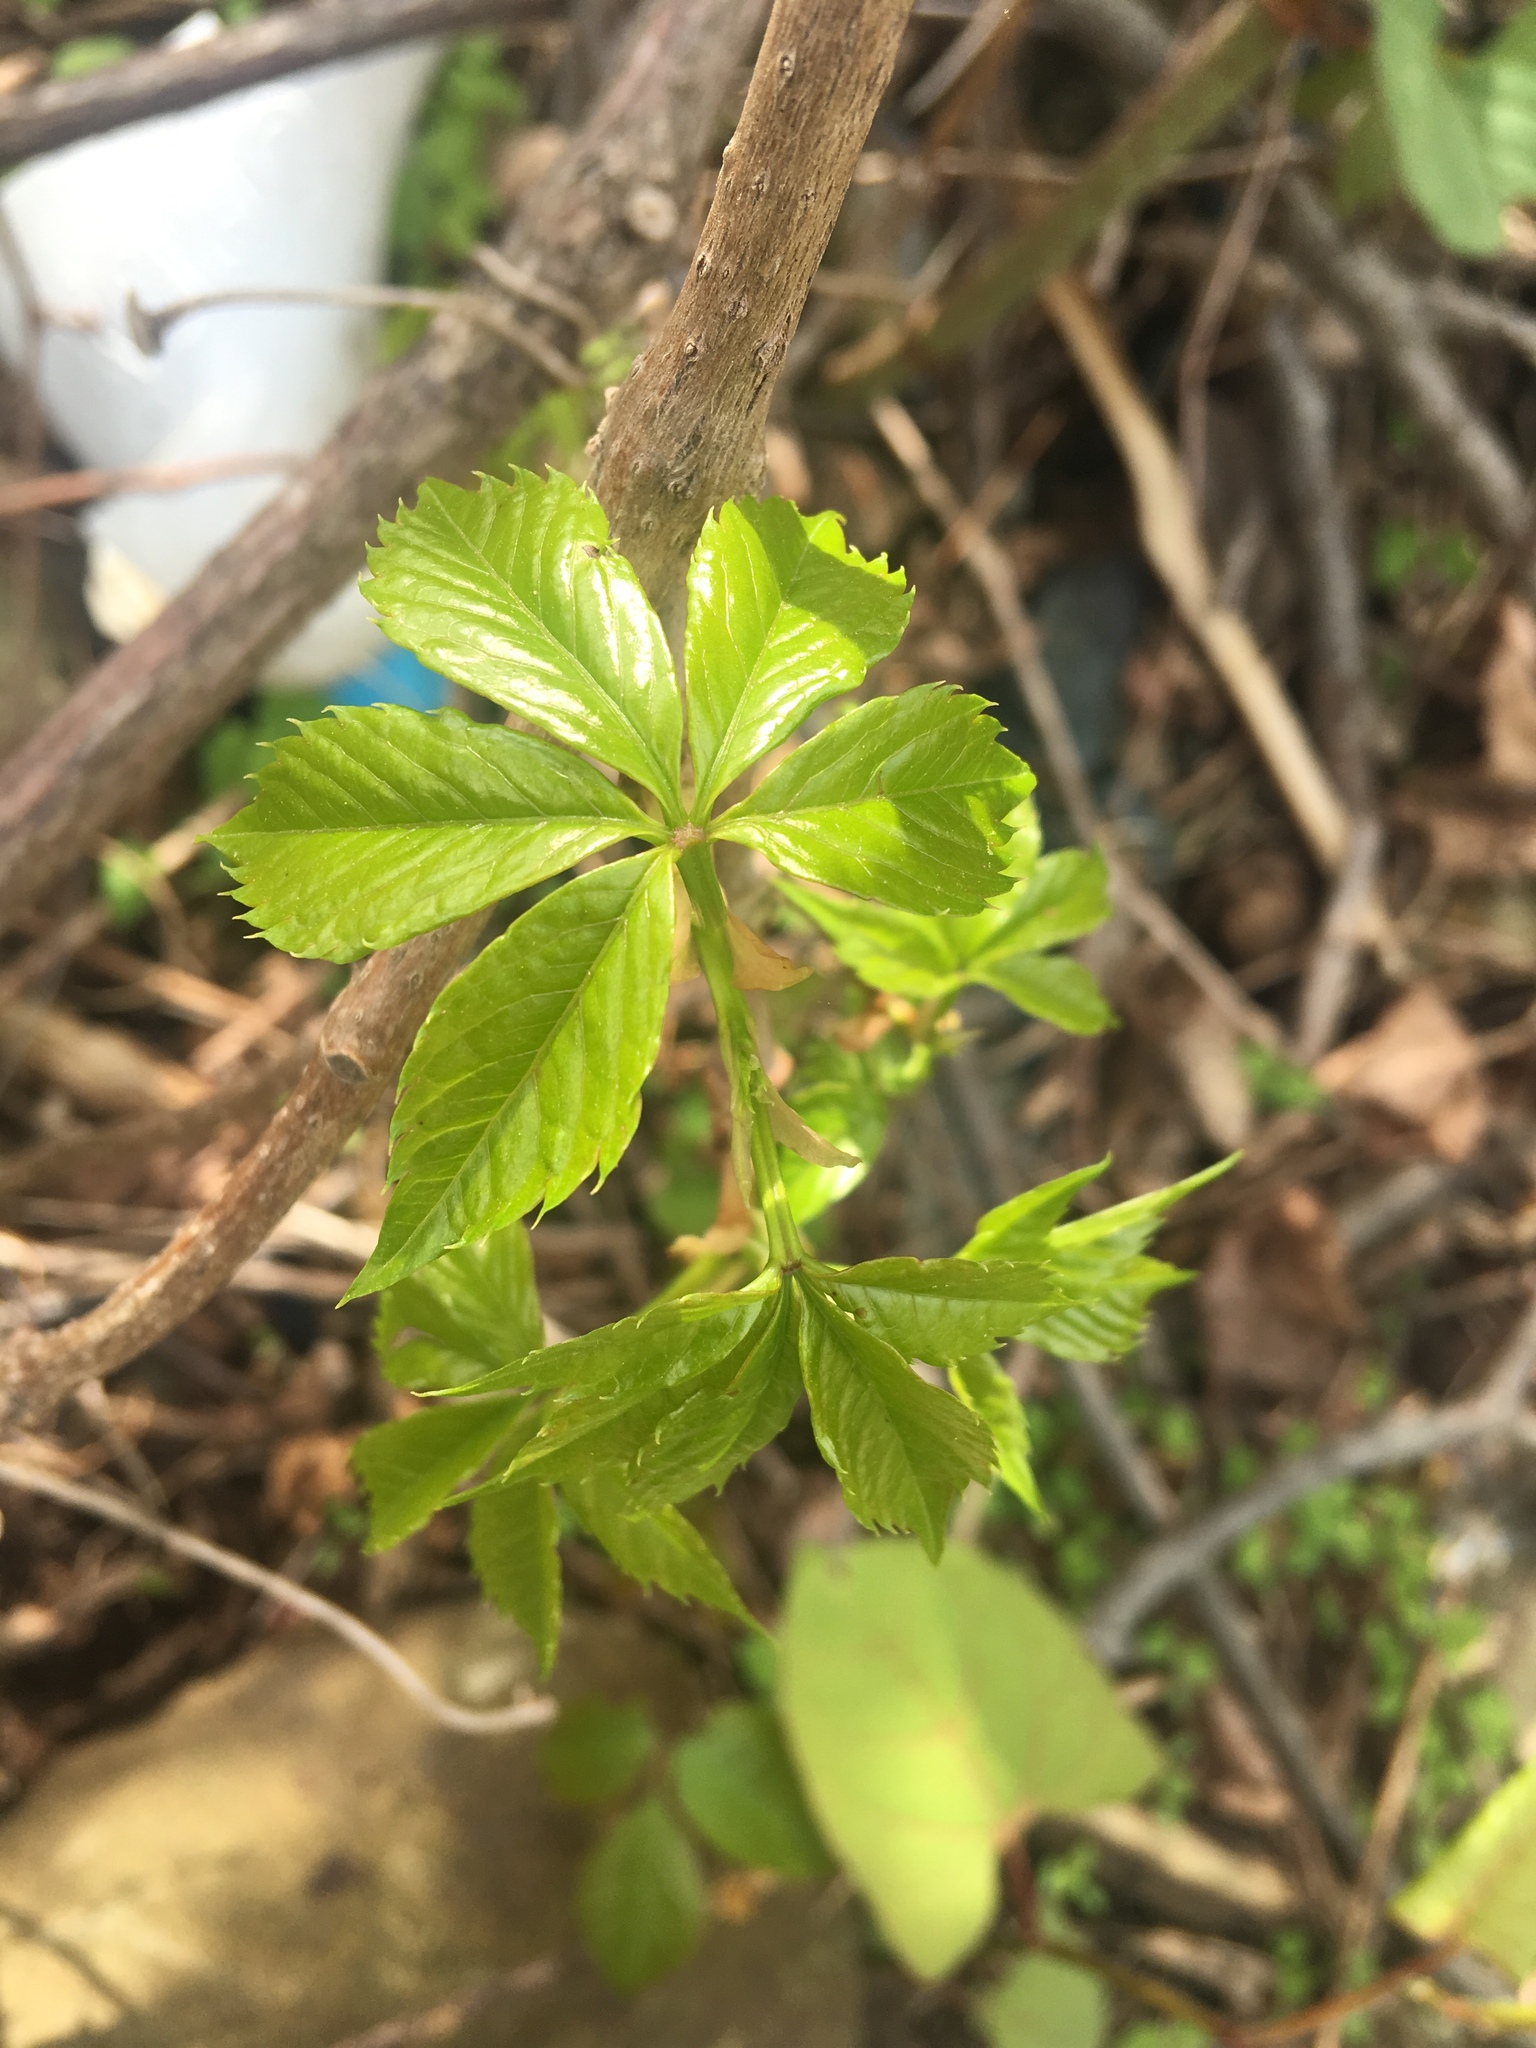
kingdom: Plantae
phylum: Tracheophyta
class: Magnoliopsida
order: Vitales
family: Vitaceae
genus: Parthenocissus
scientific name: Parthenocissus quinquefolia
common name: Virginia-creeper
